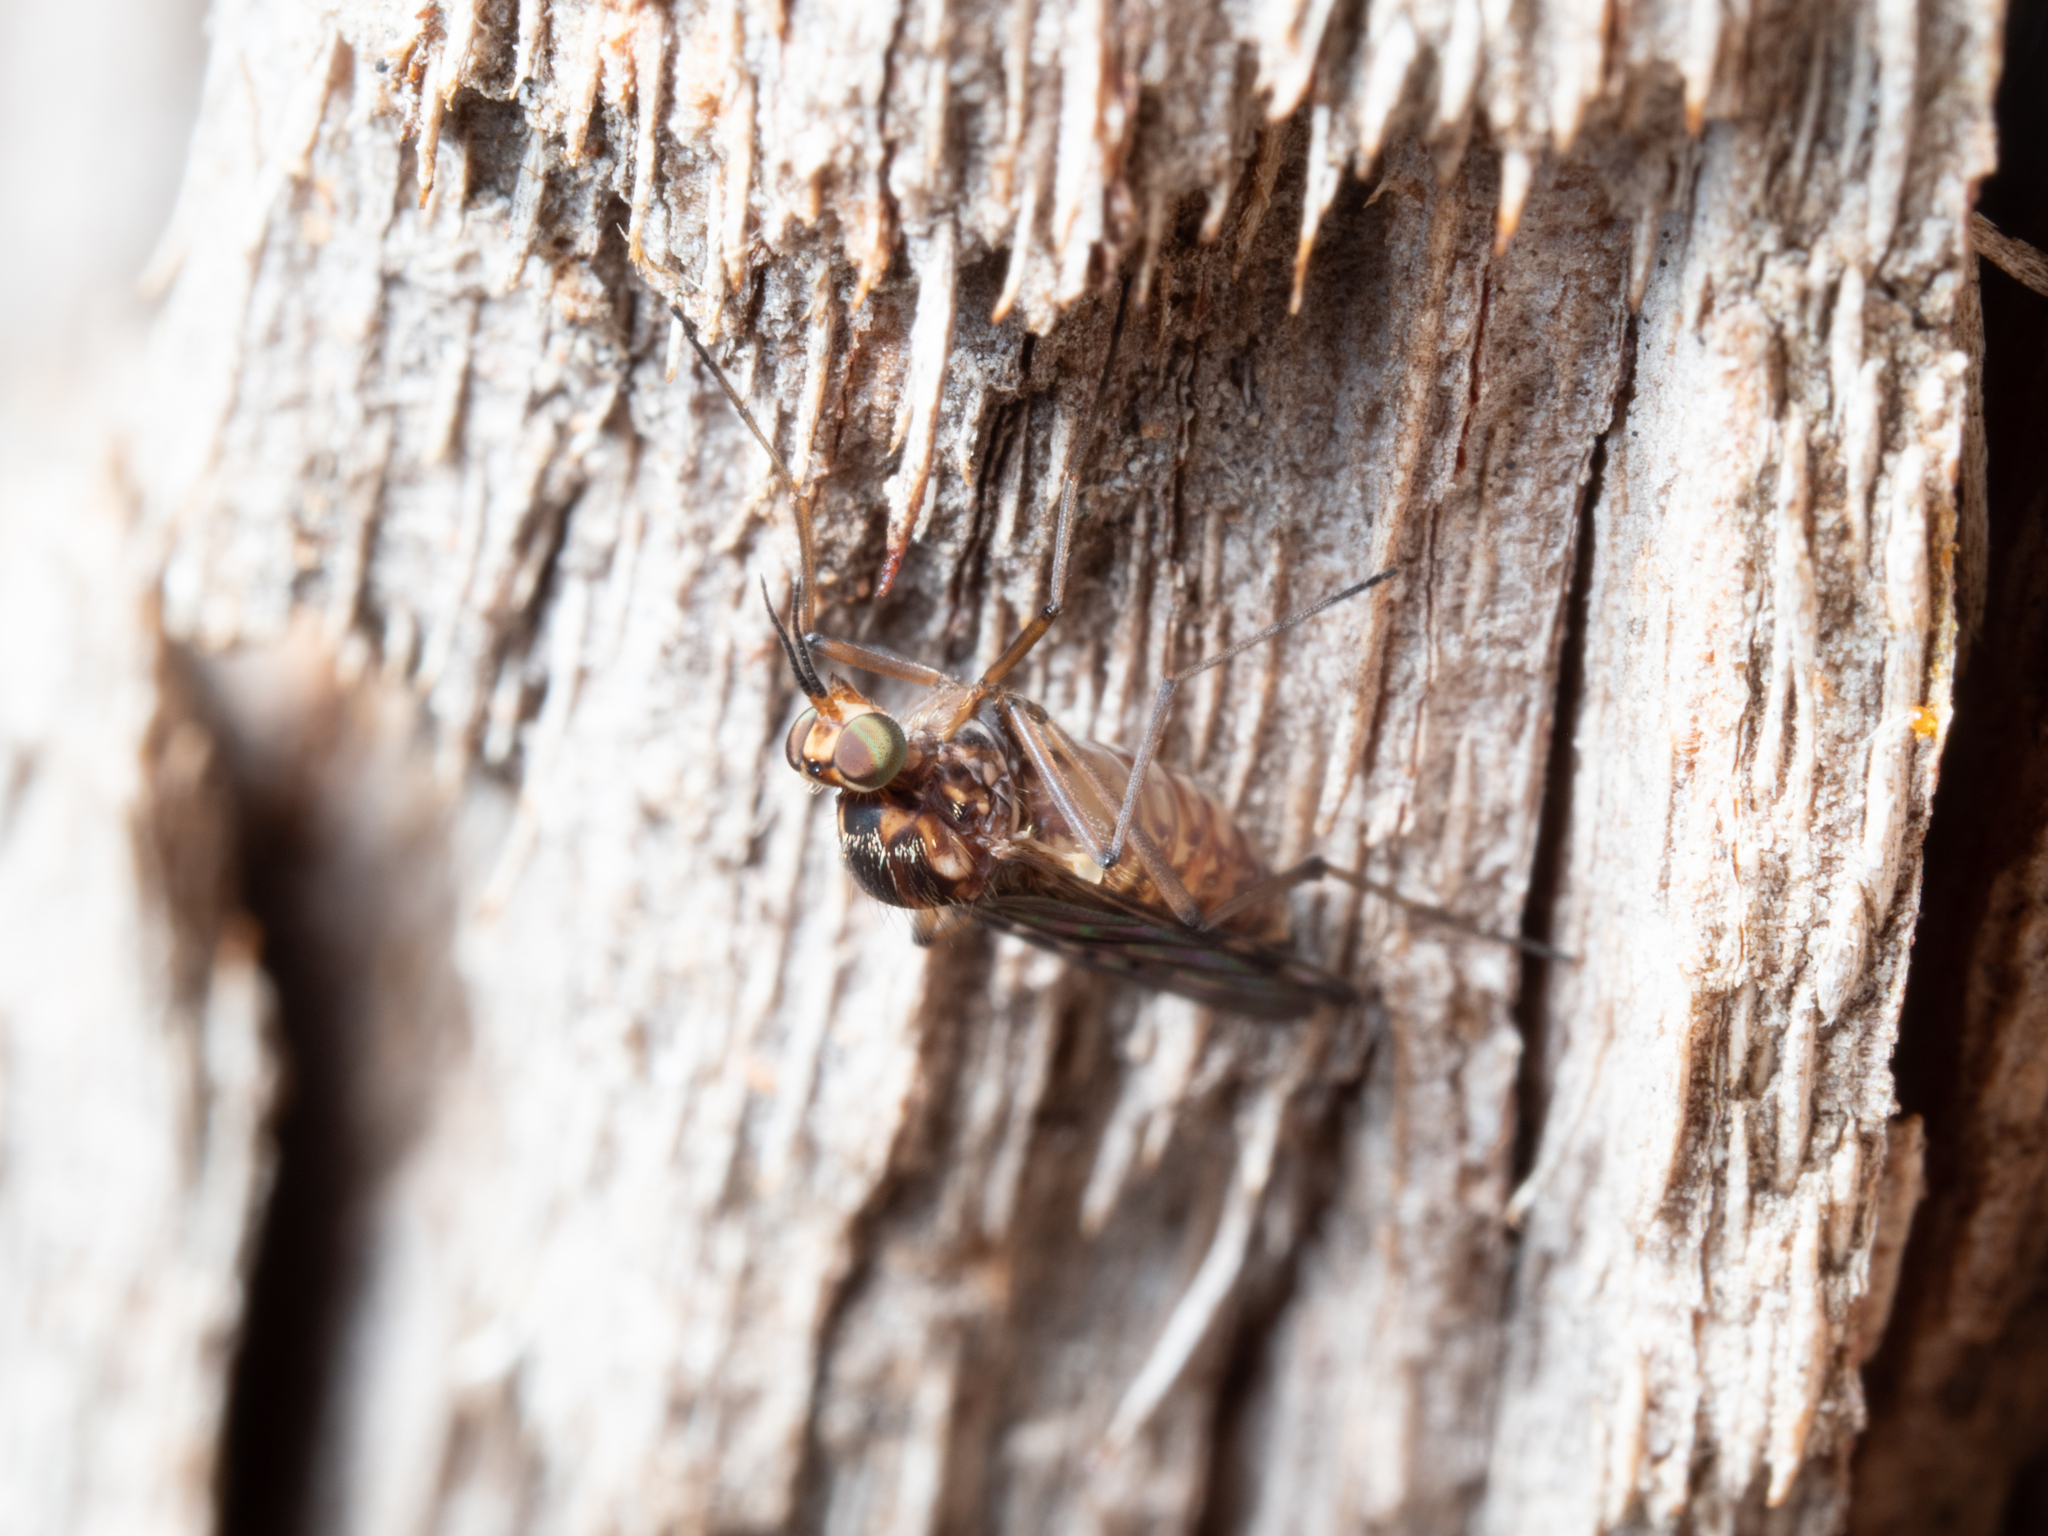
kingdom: Animalia
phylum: Arthropoda
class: Insecta
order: Diptera
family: Anisopodidae
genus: Sylvicola
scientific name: Sylvicola dubius
